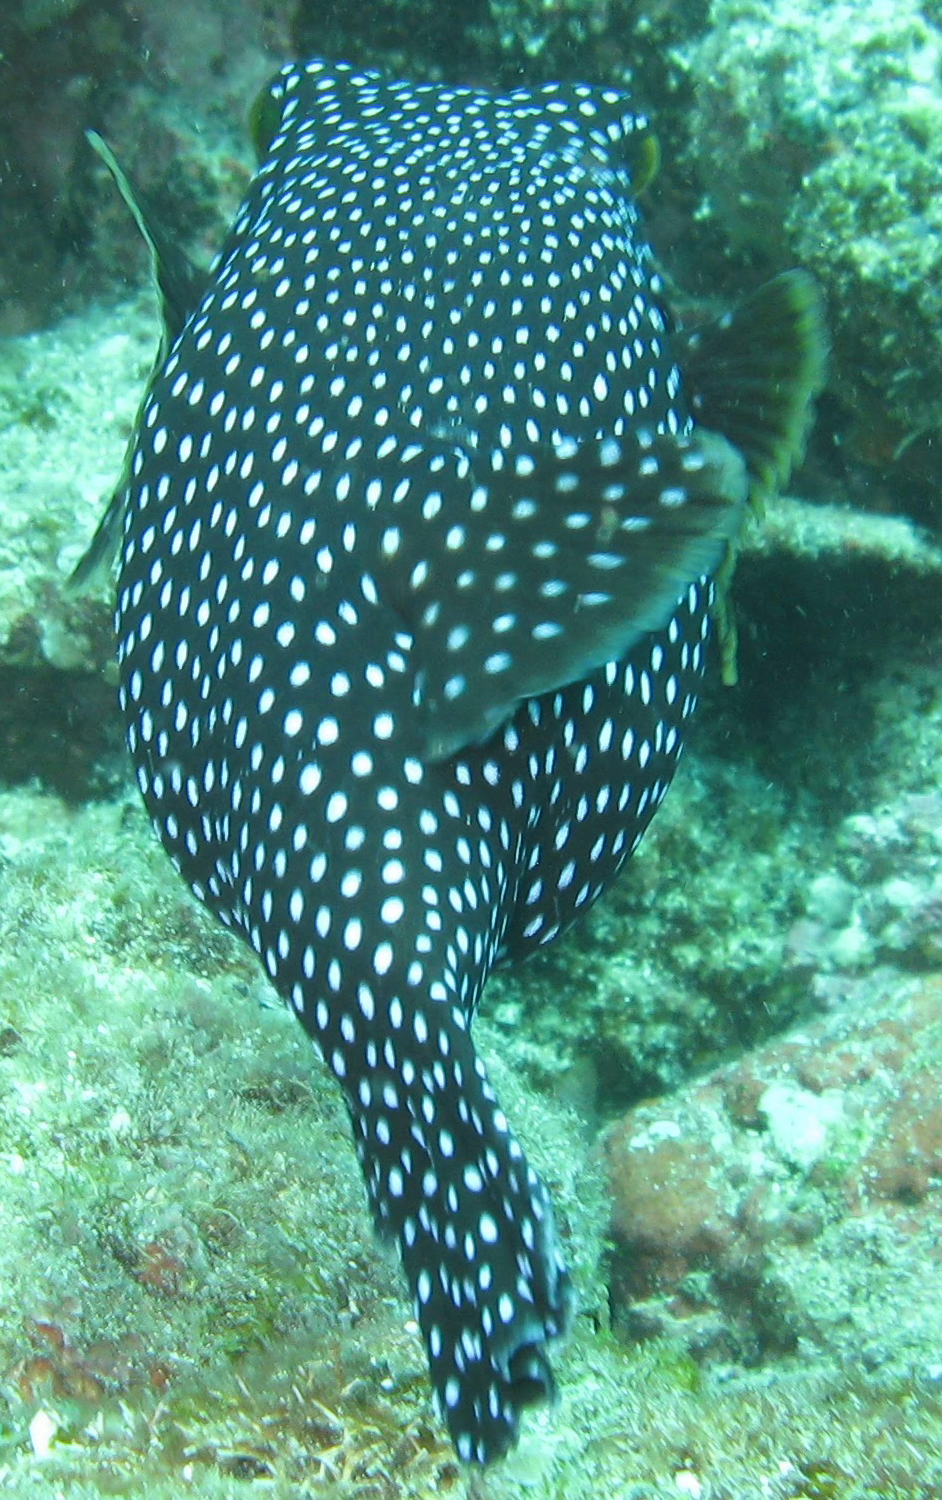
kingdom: Animalia
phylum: Chordata
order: Tetraodontiformes
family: Tetraodontidae
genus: Arothron
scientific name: Arothron meleagris
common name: Guinea-fowl pufferfish
